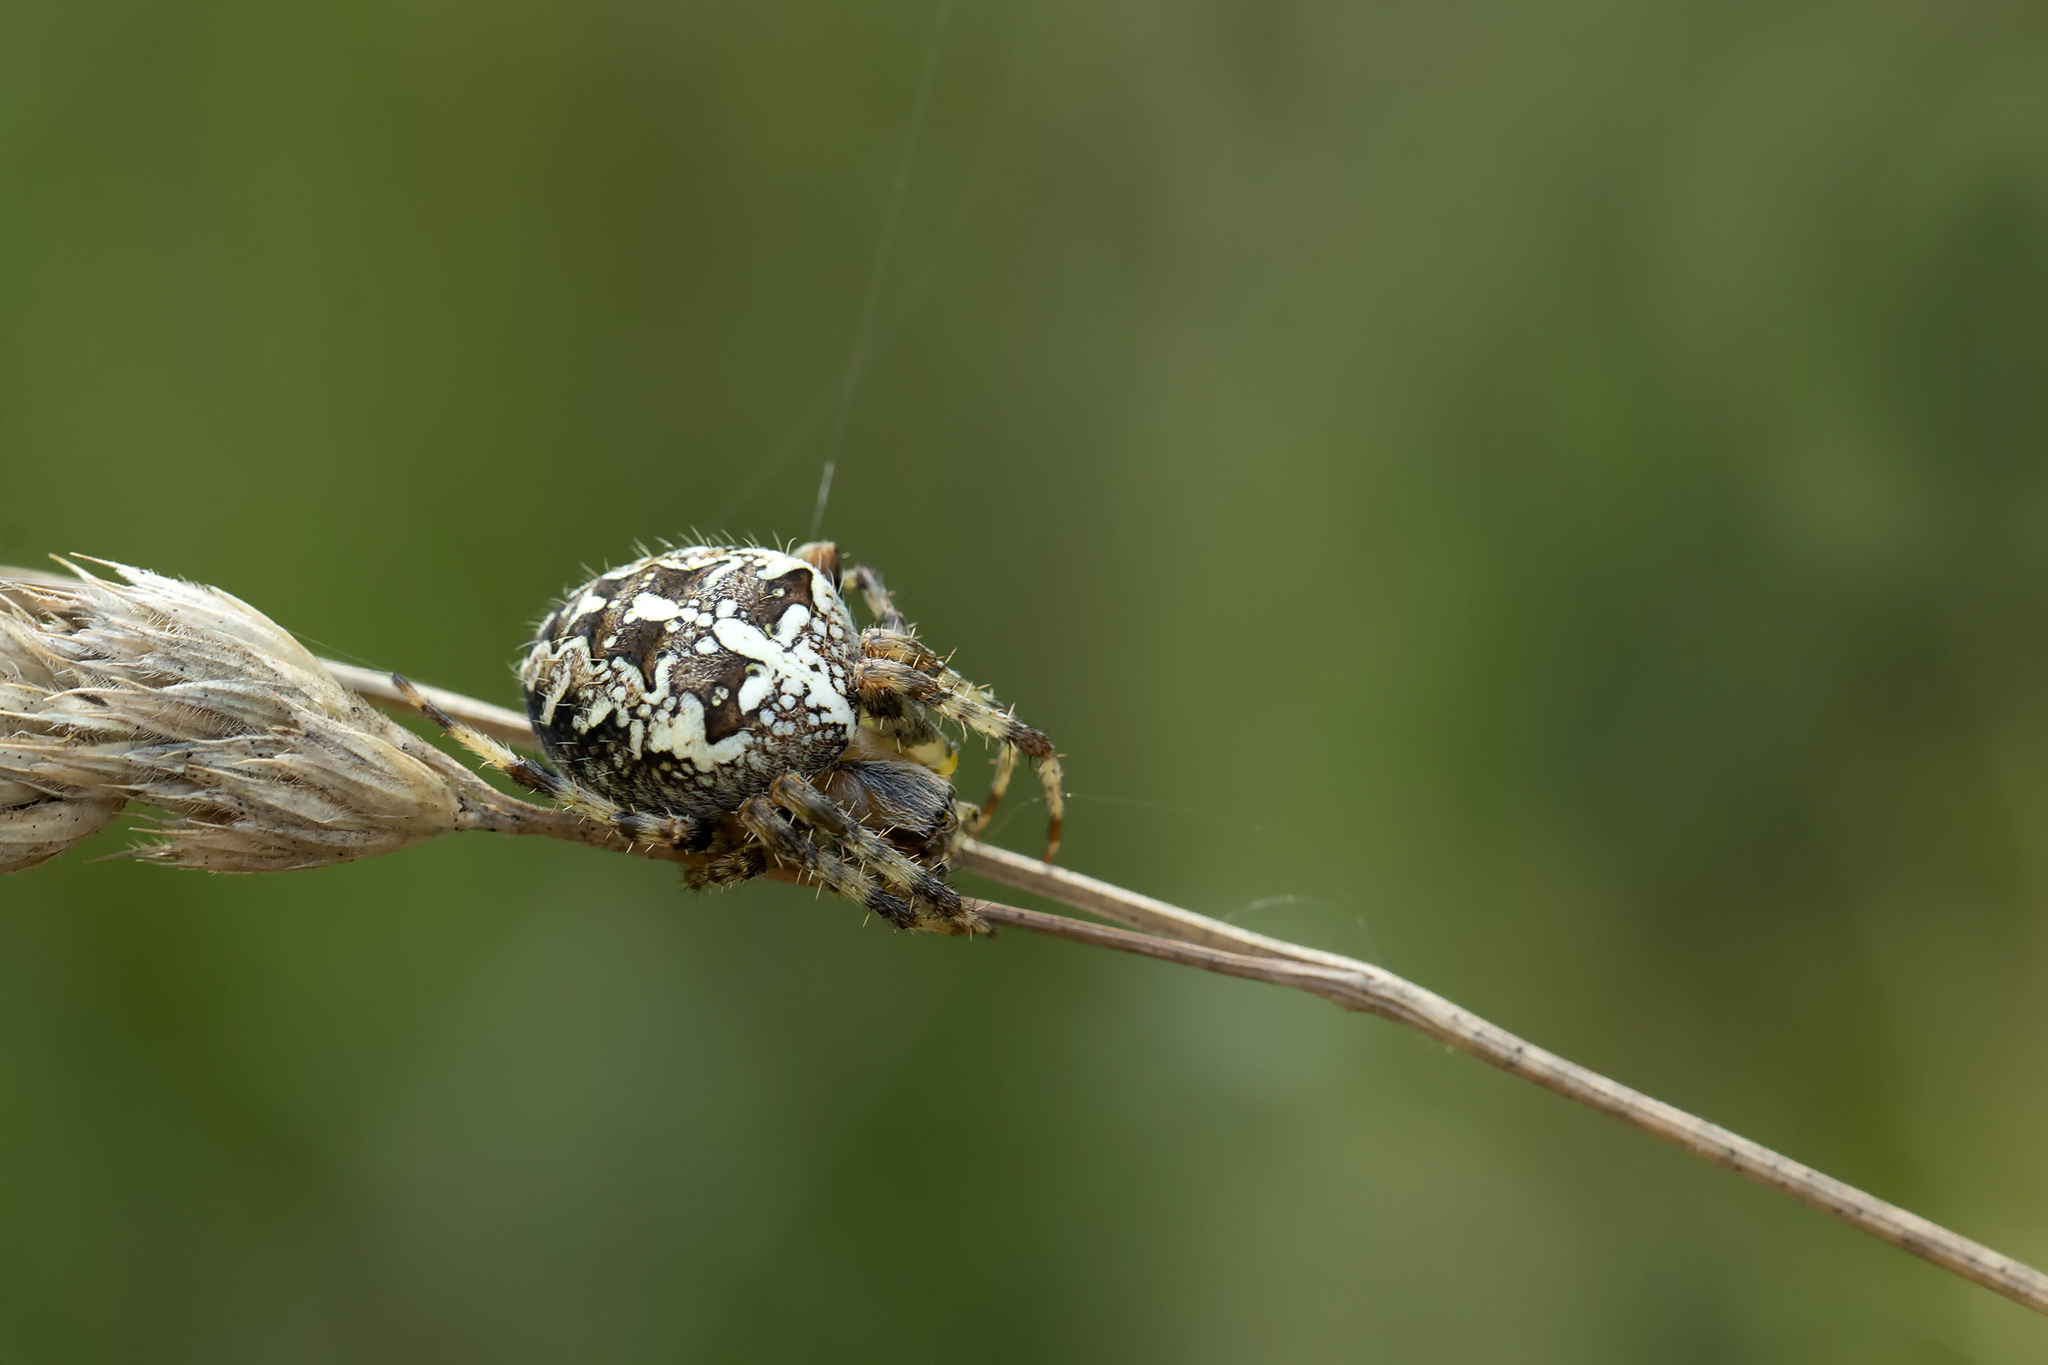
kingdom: Animalia
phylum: Arthropoda
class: Arachnida
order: Araneae
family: Araneidae
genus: Araneus
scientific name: Araneus diadematus
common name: Cross orbweaver
